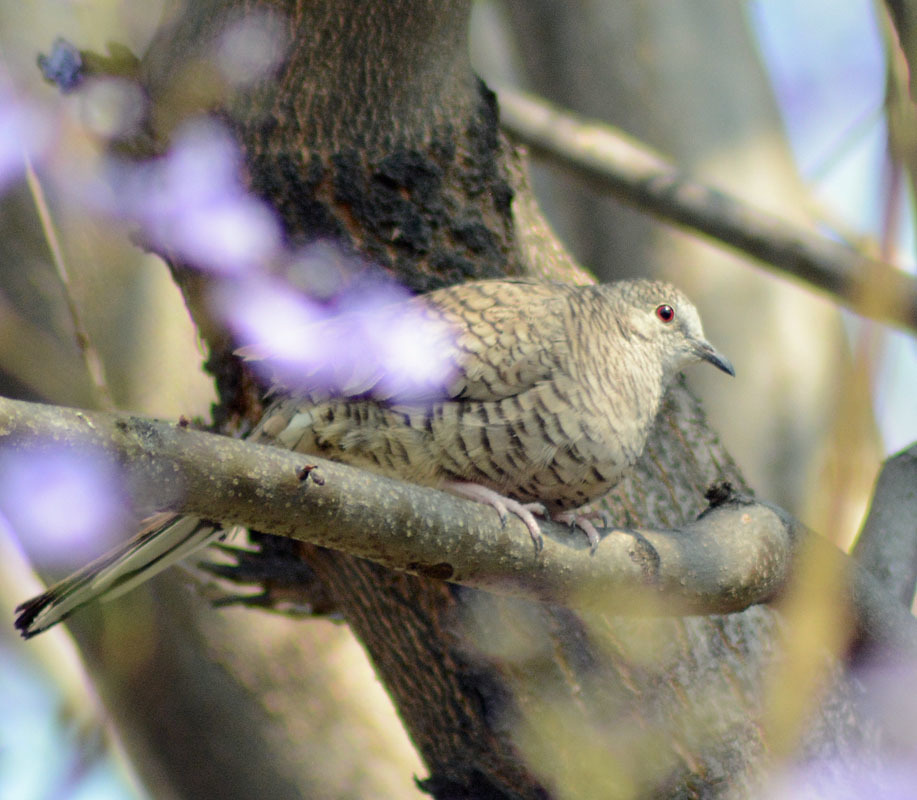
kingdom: Animalia
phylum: Chordata
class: Aves
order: Columbiformes
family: Columbidae
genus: Columbina
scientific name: Columbina inca
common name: Inca dove
